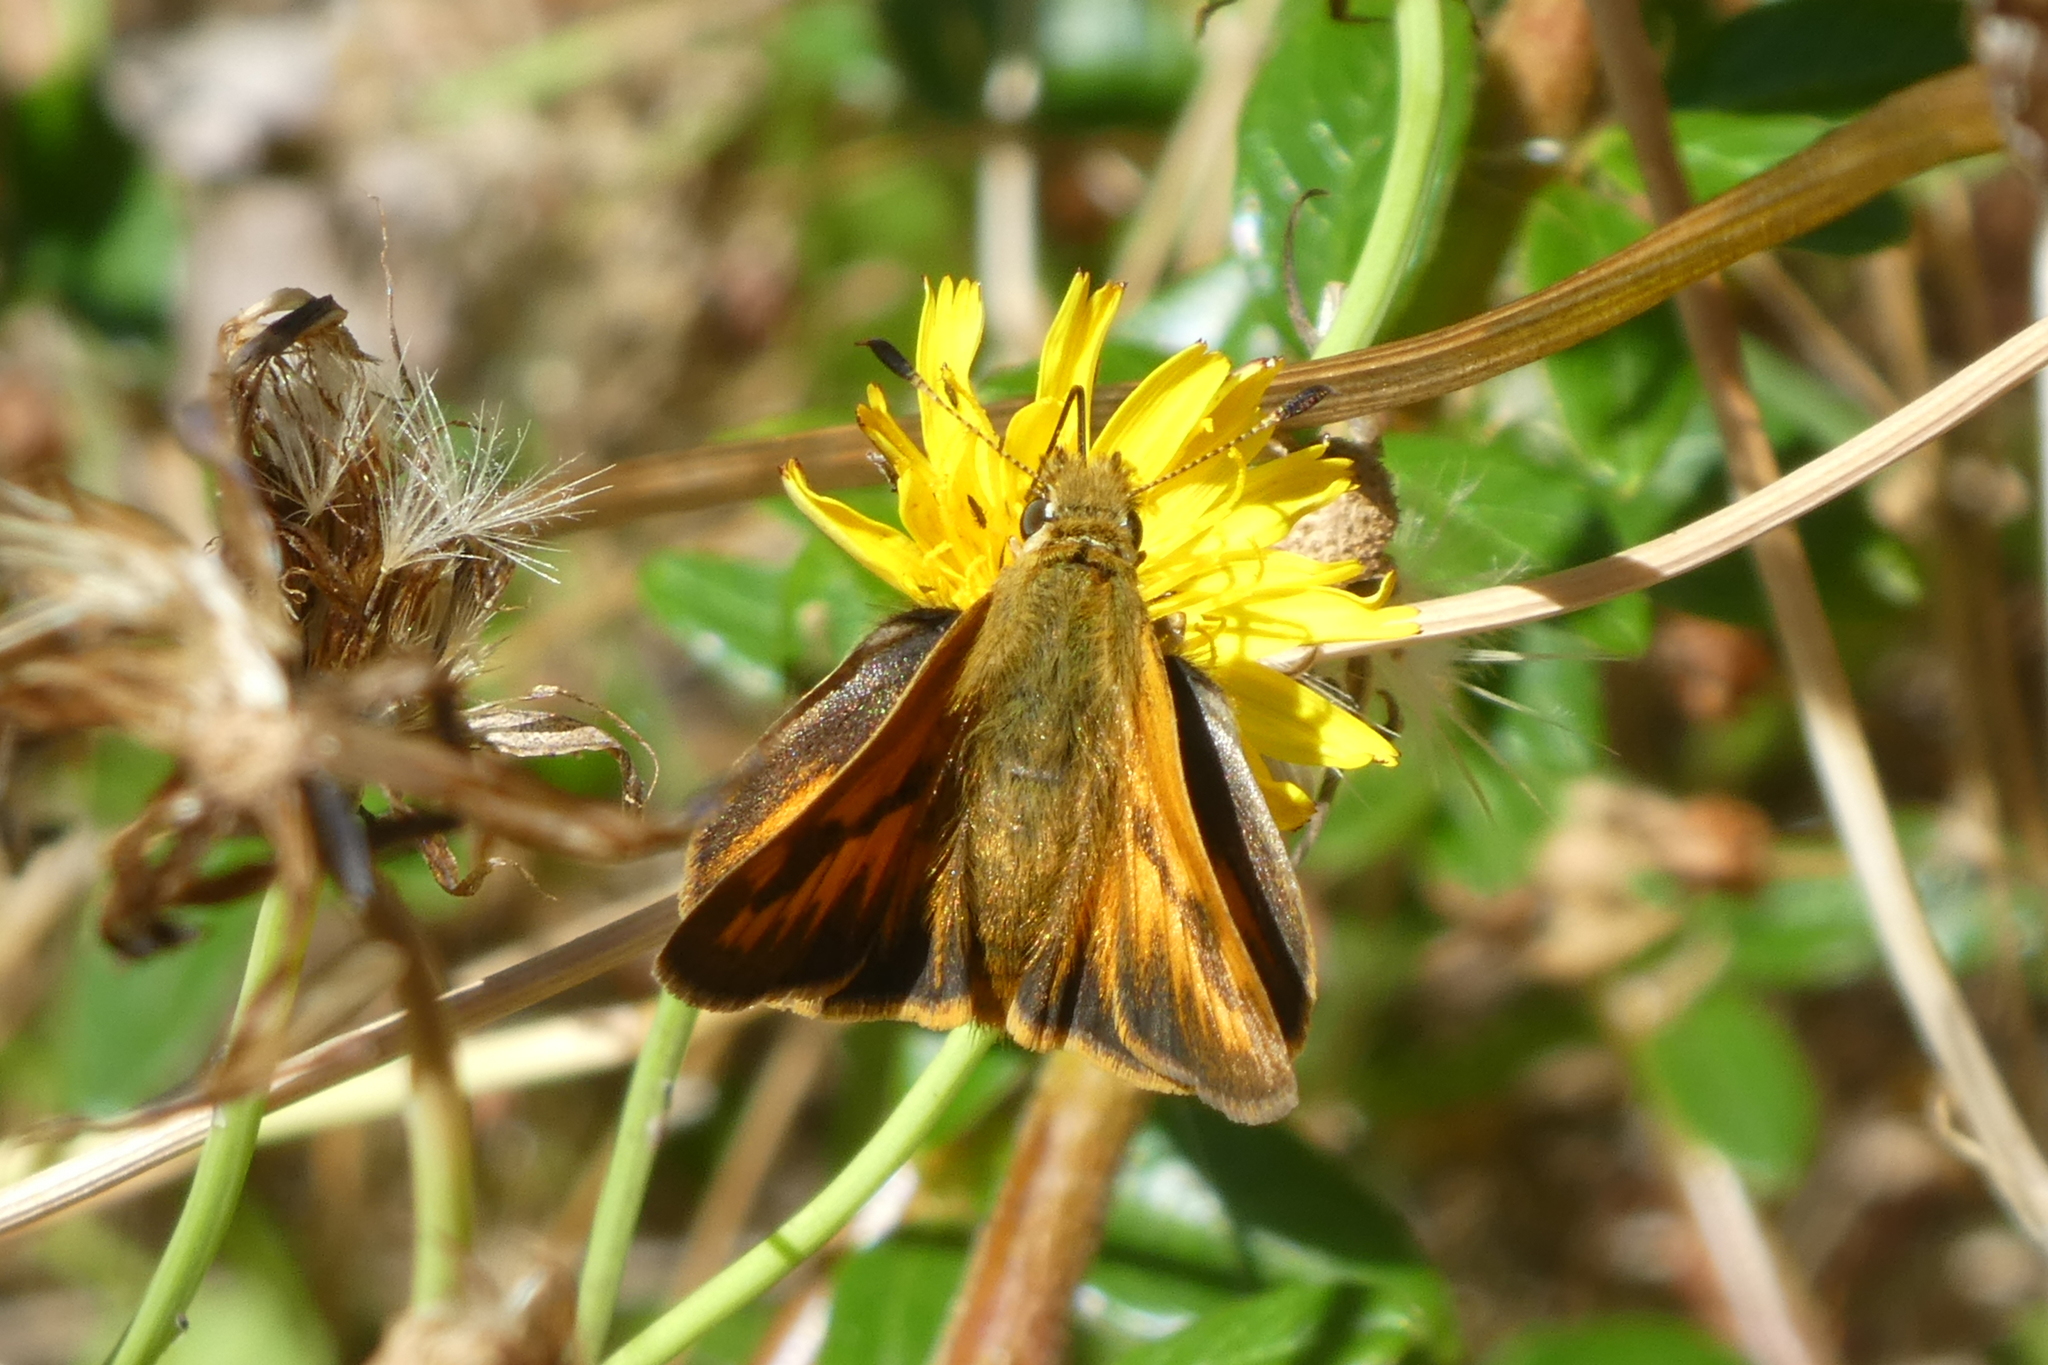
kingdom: Animalia
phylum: Arthropoda
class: Insecta
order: Lepidoptera
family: Hesperiidae
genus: Ochlodes
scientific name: Ochlodes sylvanoides
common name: Woodland skipper
